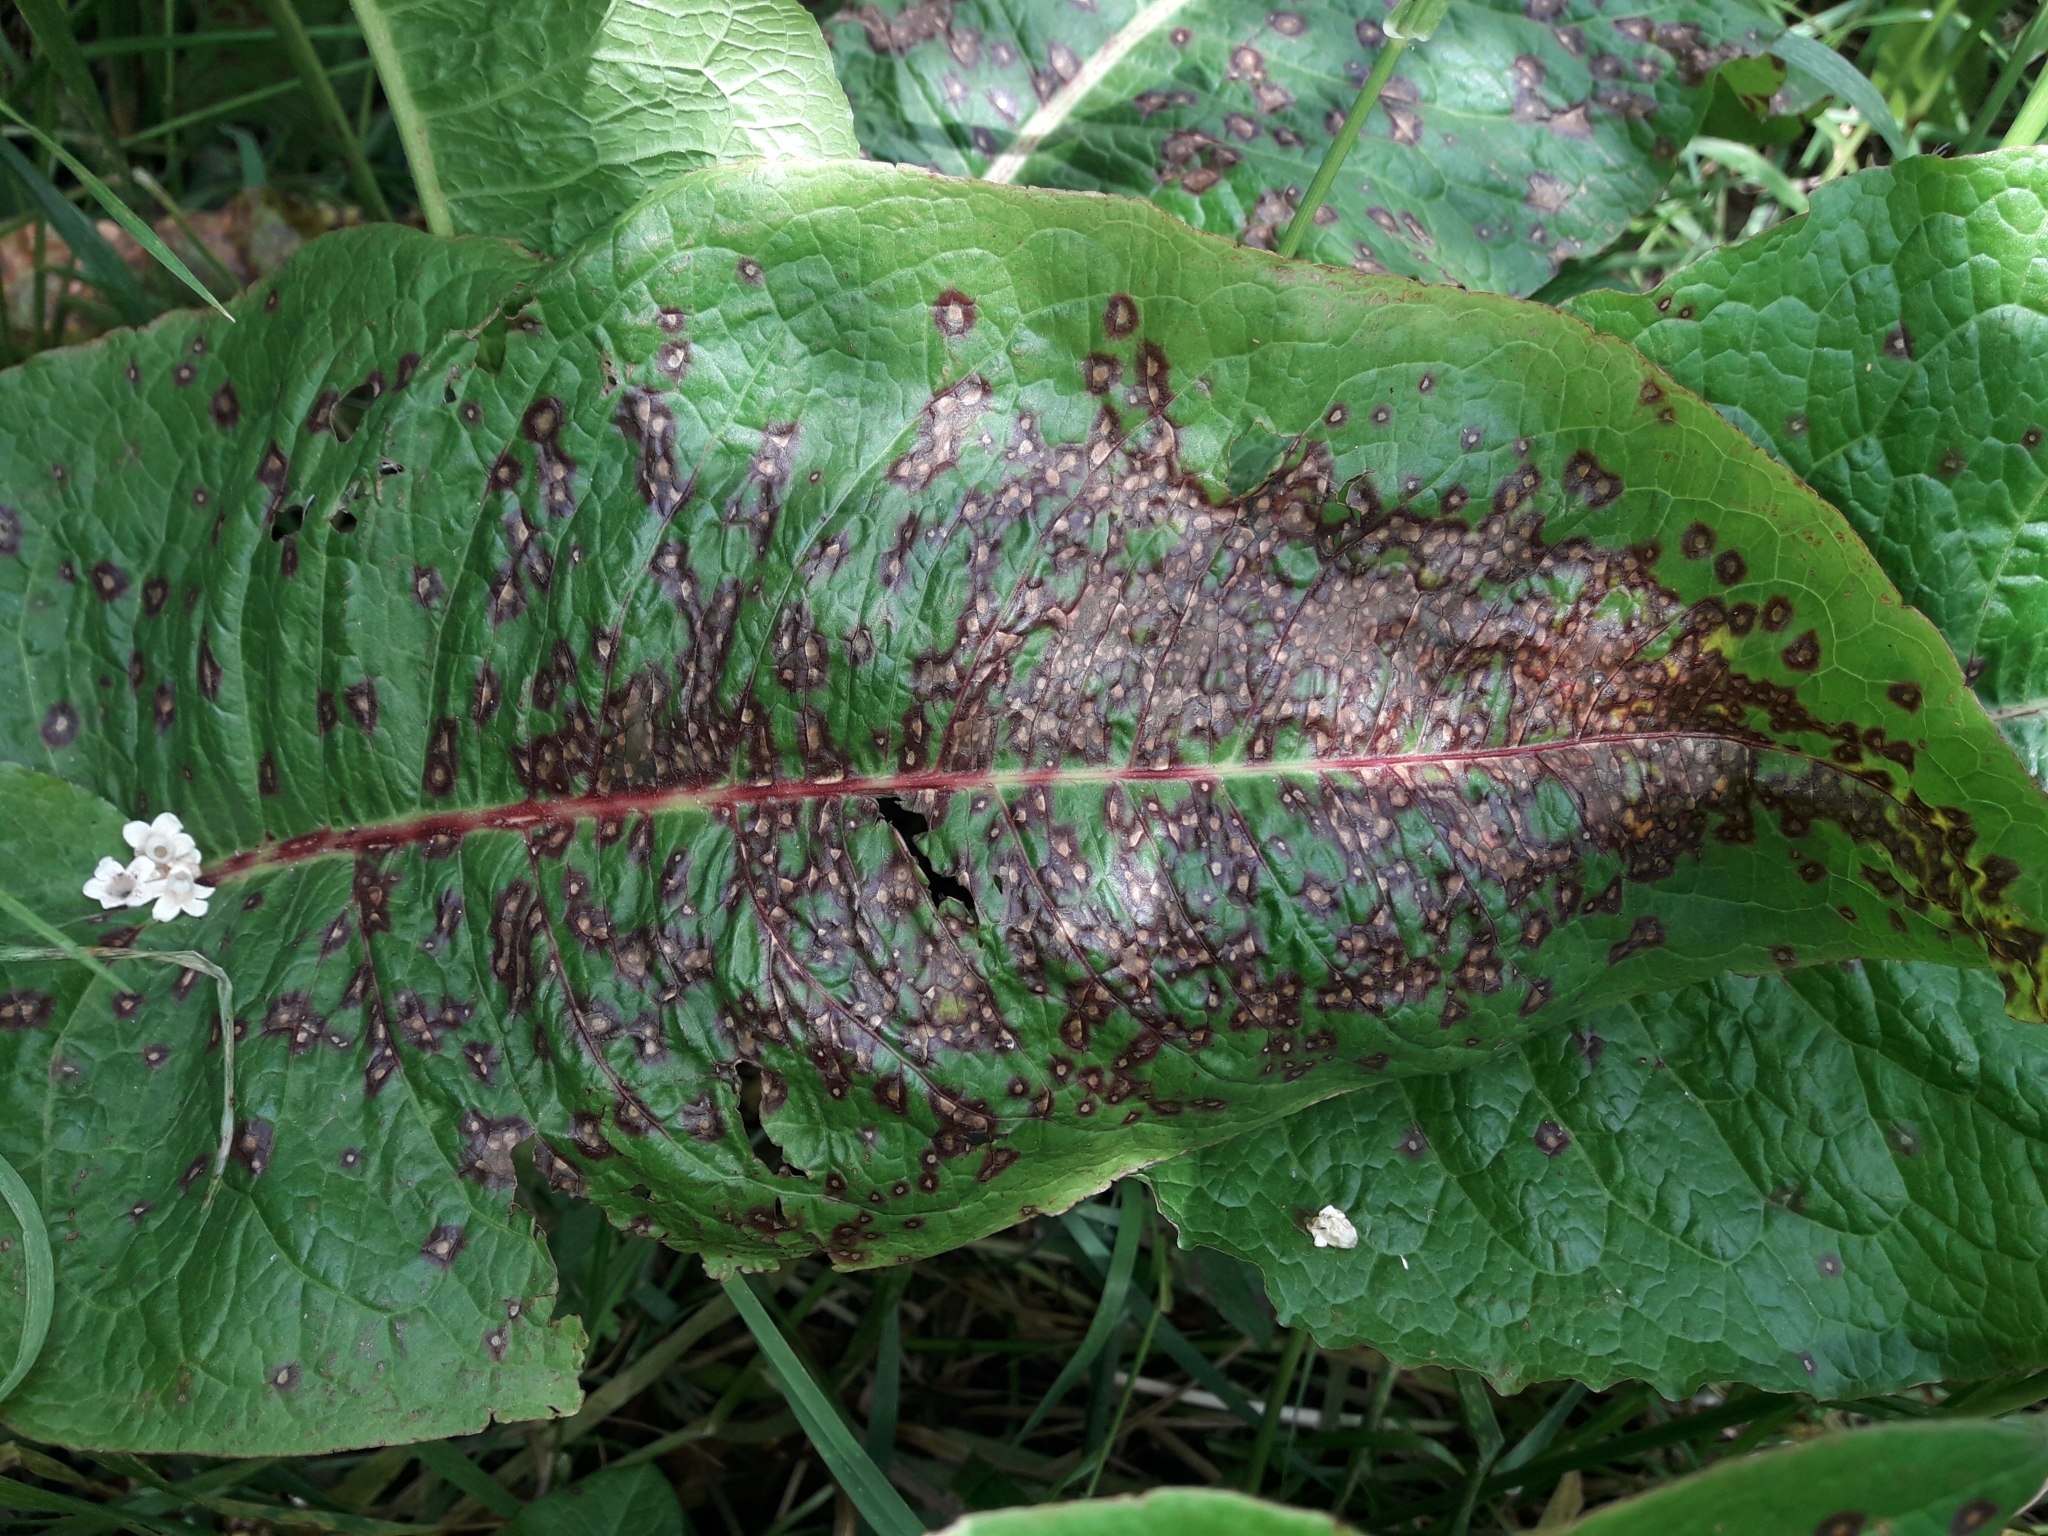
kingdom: Fungi
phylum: Ascomycota
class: Dothideomycetes
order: Mycosphaerellales
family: Mycosphaerellaceae
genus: Ramularia
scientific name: Ramularia rubella
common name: Red dock spot
